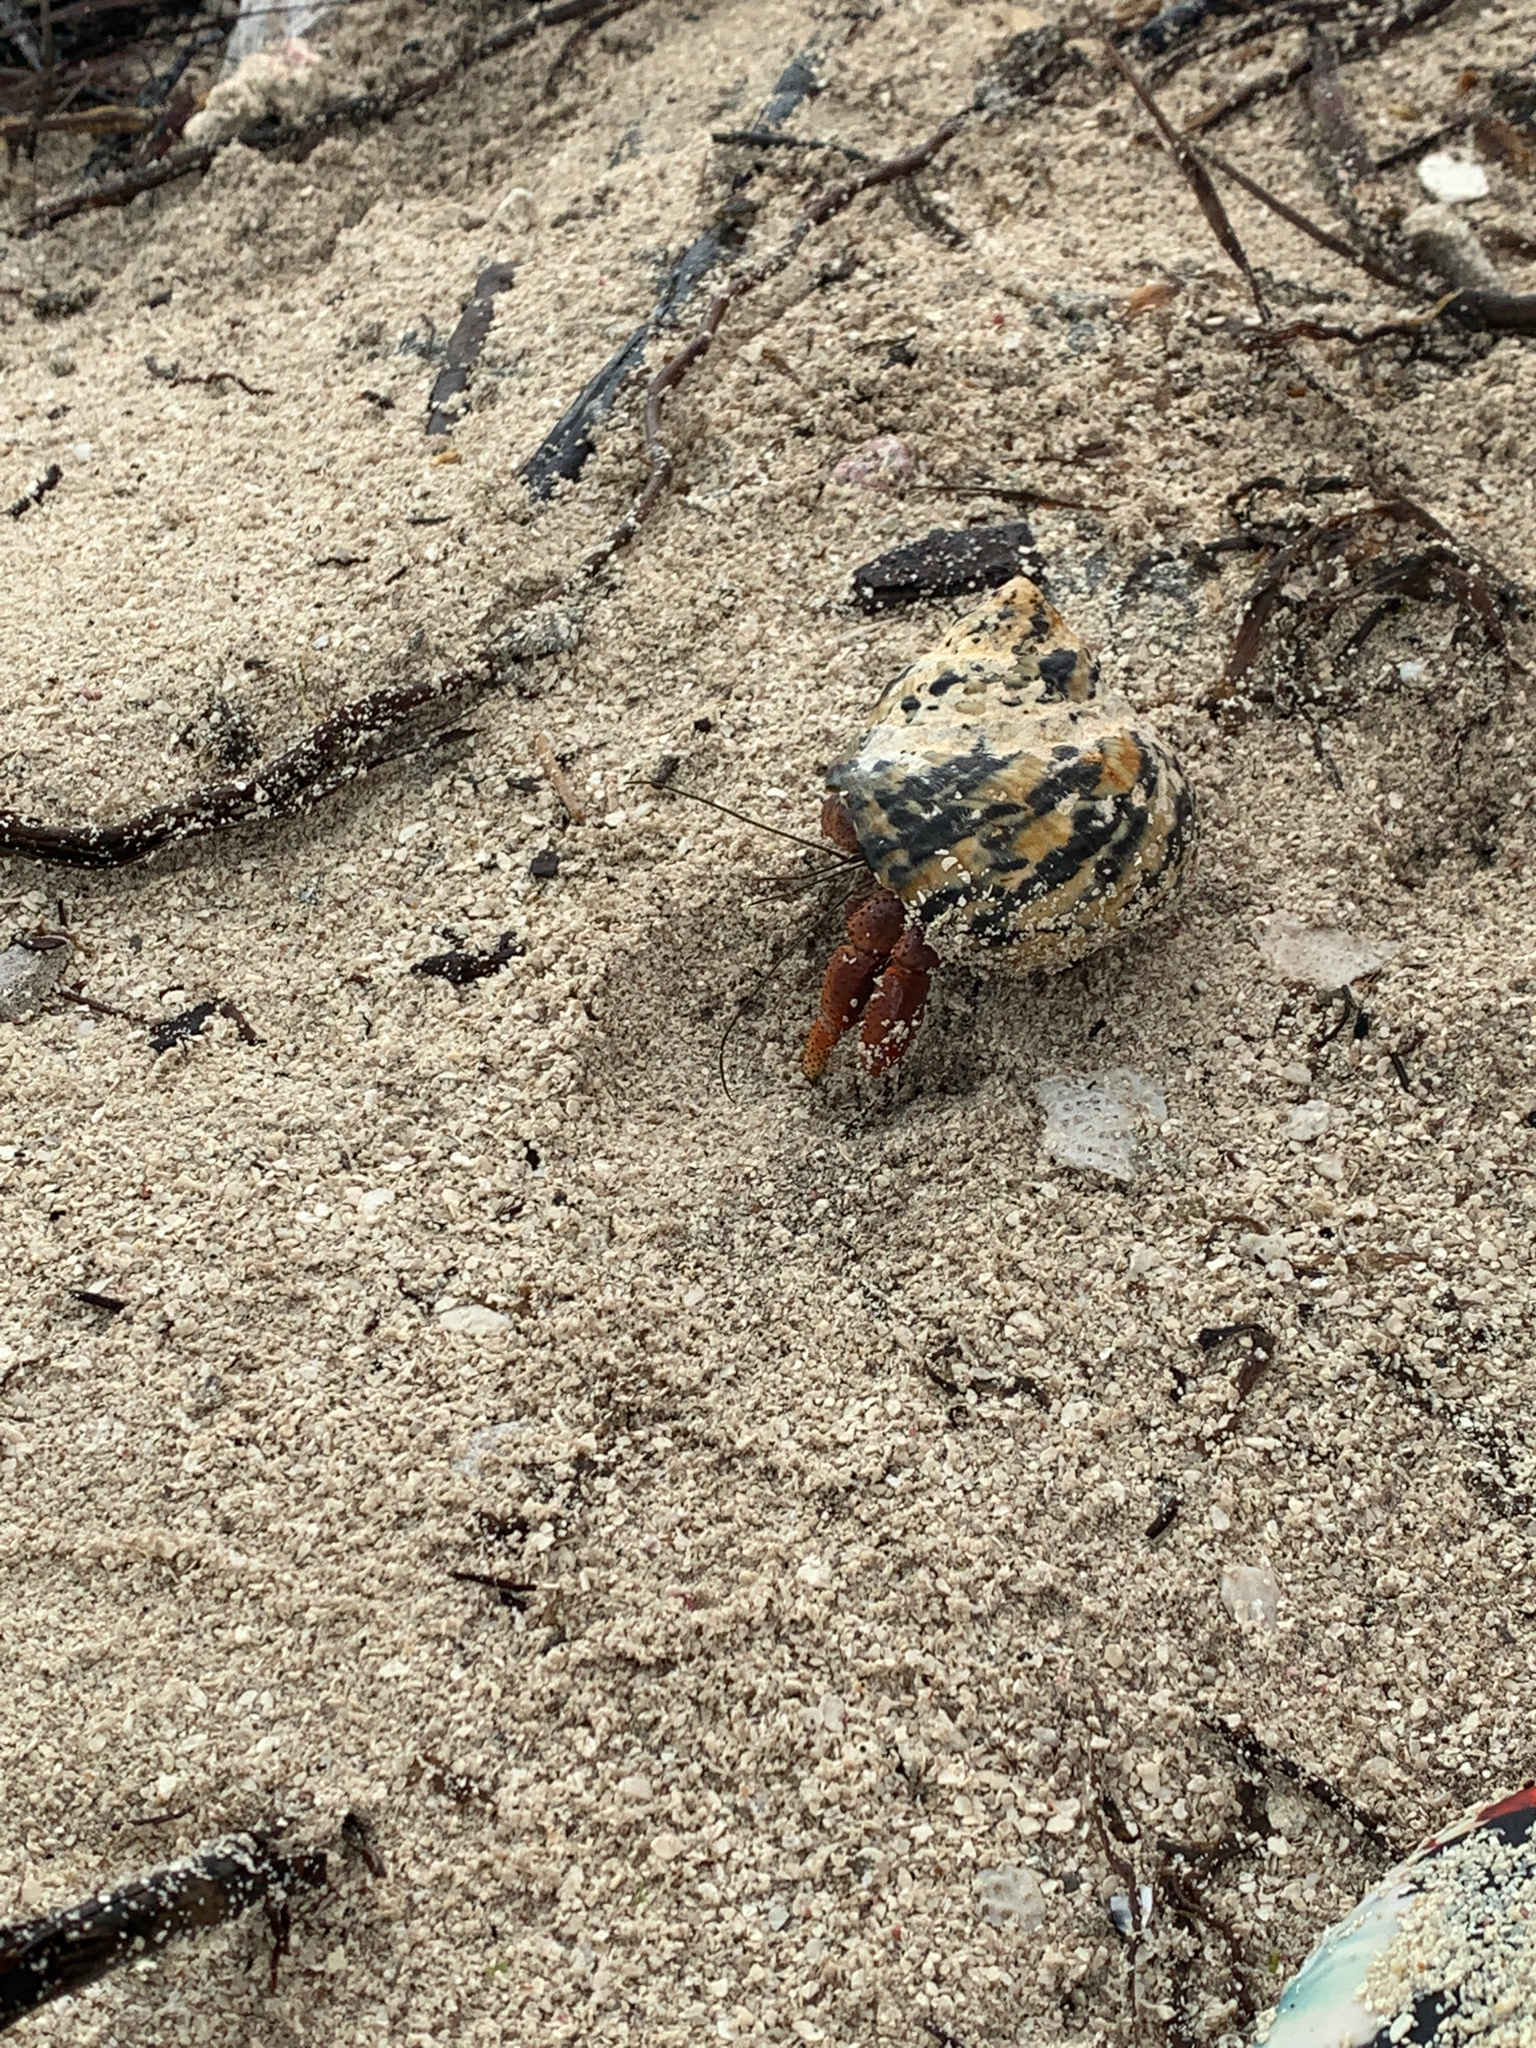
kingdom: Animalia
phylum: Arthropoda
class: Malacostraca
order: Decapoda
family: Coenobitidae
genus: Coenobita
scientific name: Coenobita clypeatus
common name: Caribbean hermit crab
